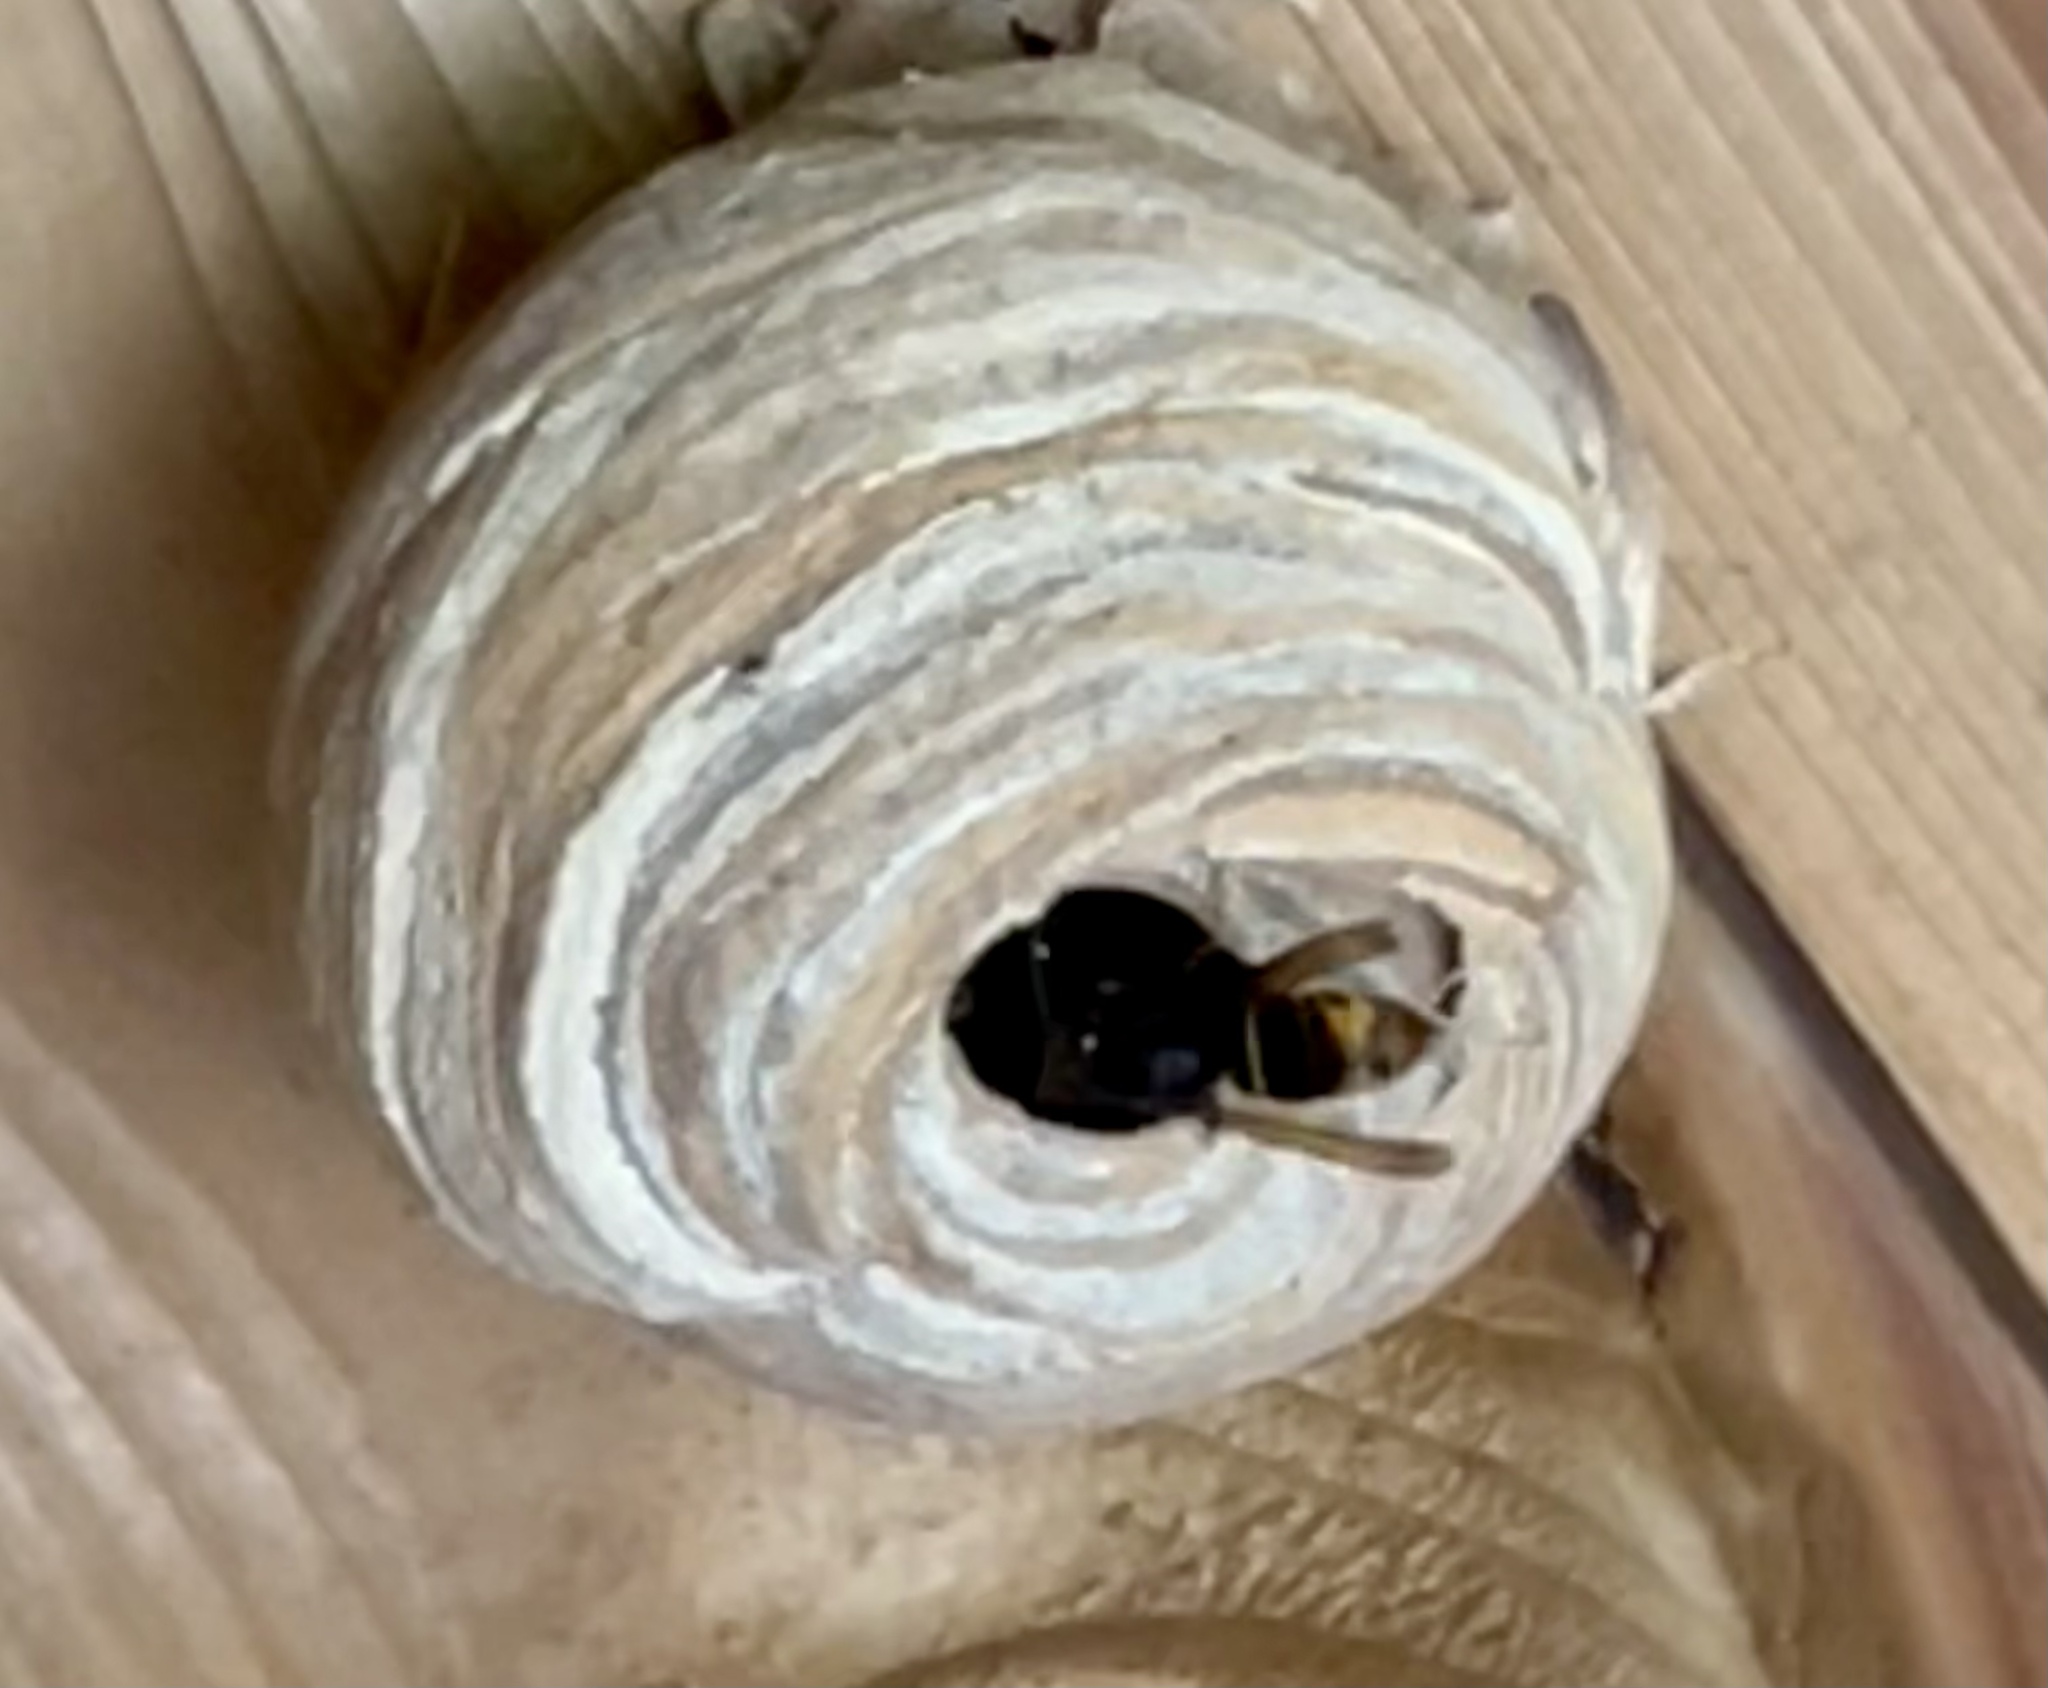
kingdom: Animalia
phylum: Arthropoda
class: Insecta
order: Hymenoptera
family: Vespidae
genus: Vespa
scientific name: Vespa velutina
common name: Asian hornet
